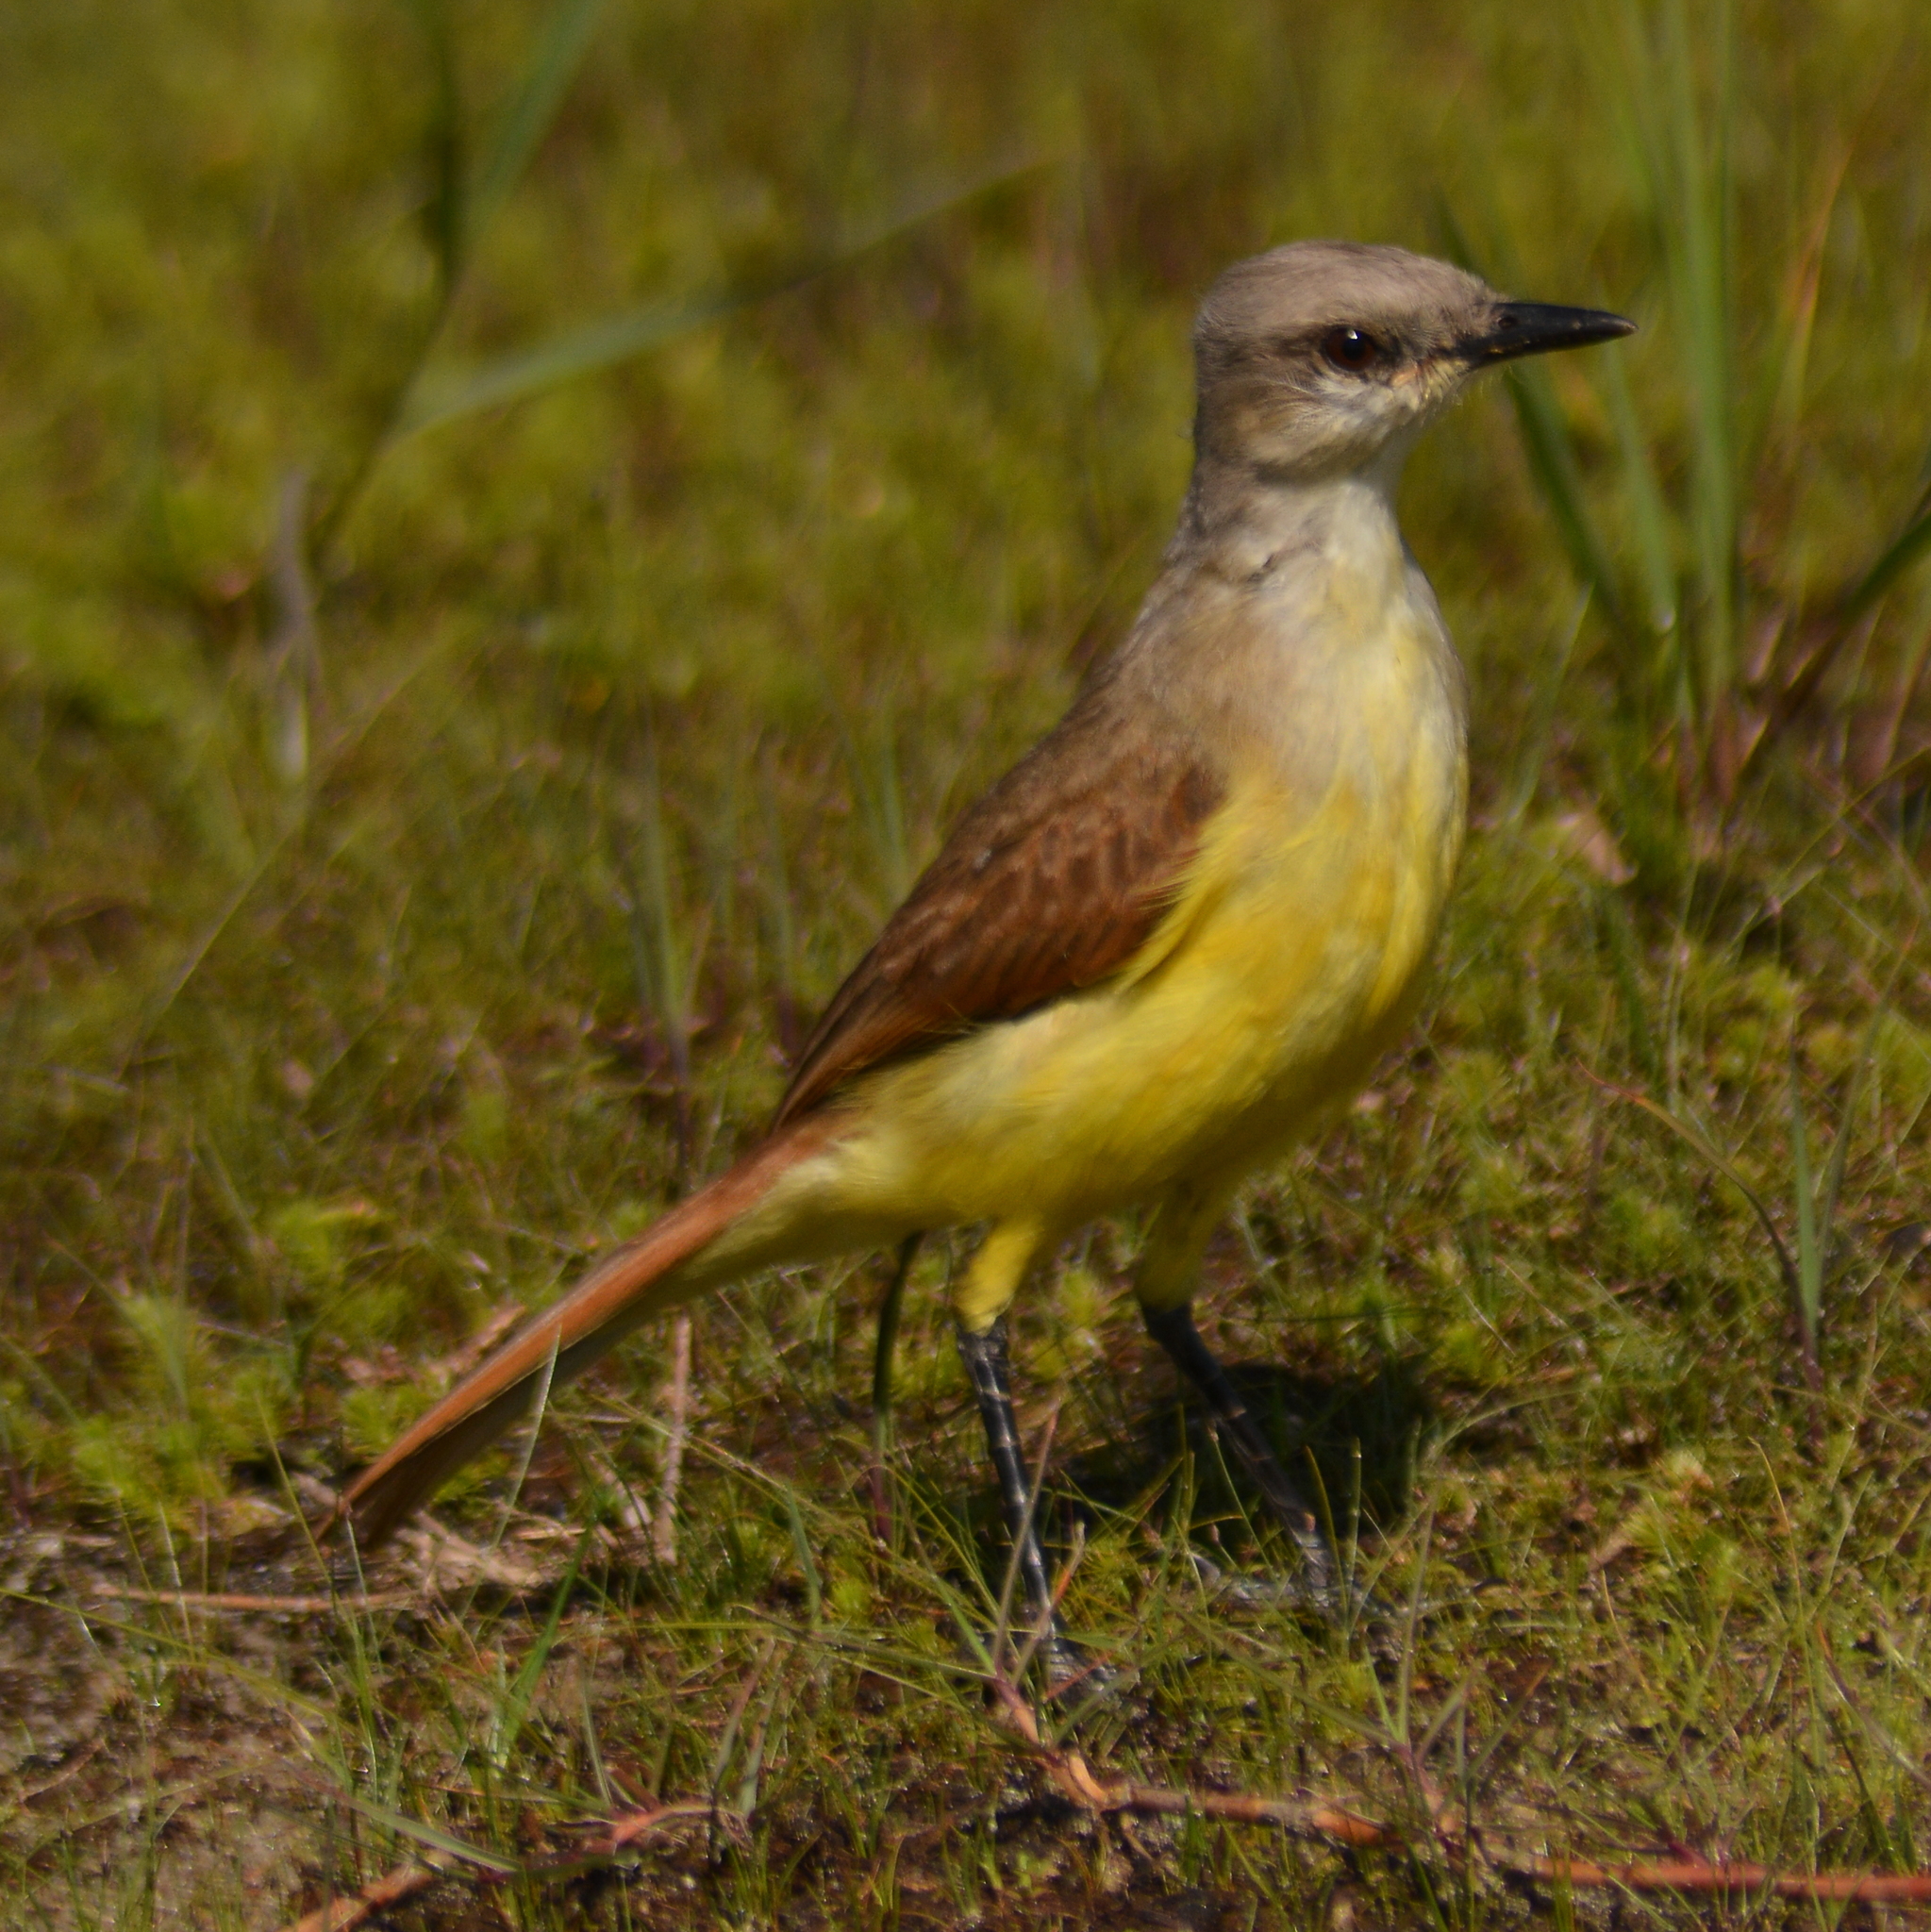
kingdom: Animalia
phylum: Chordata
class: Aves
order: Passeriformes
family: Tyrannidae
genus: Machetornis
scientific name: Machetornis rixosa
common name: Cattle tyrant
